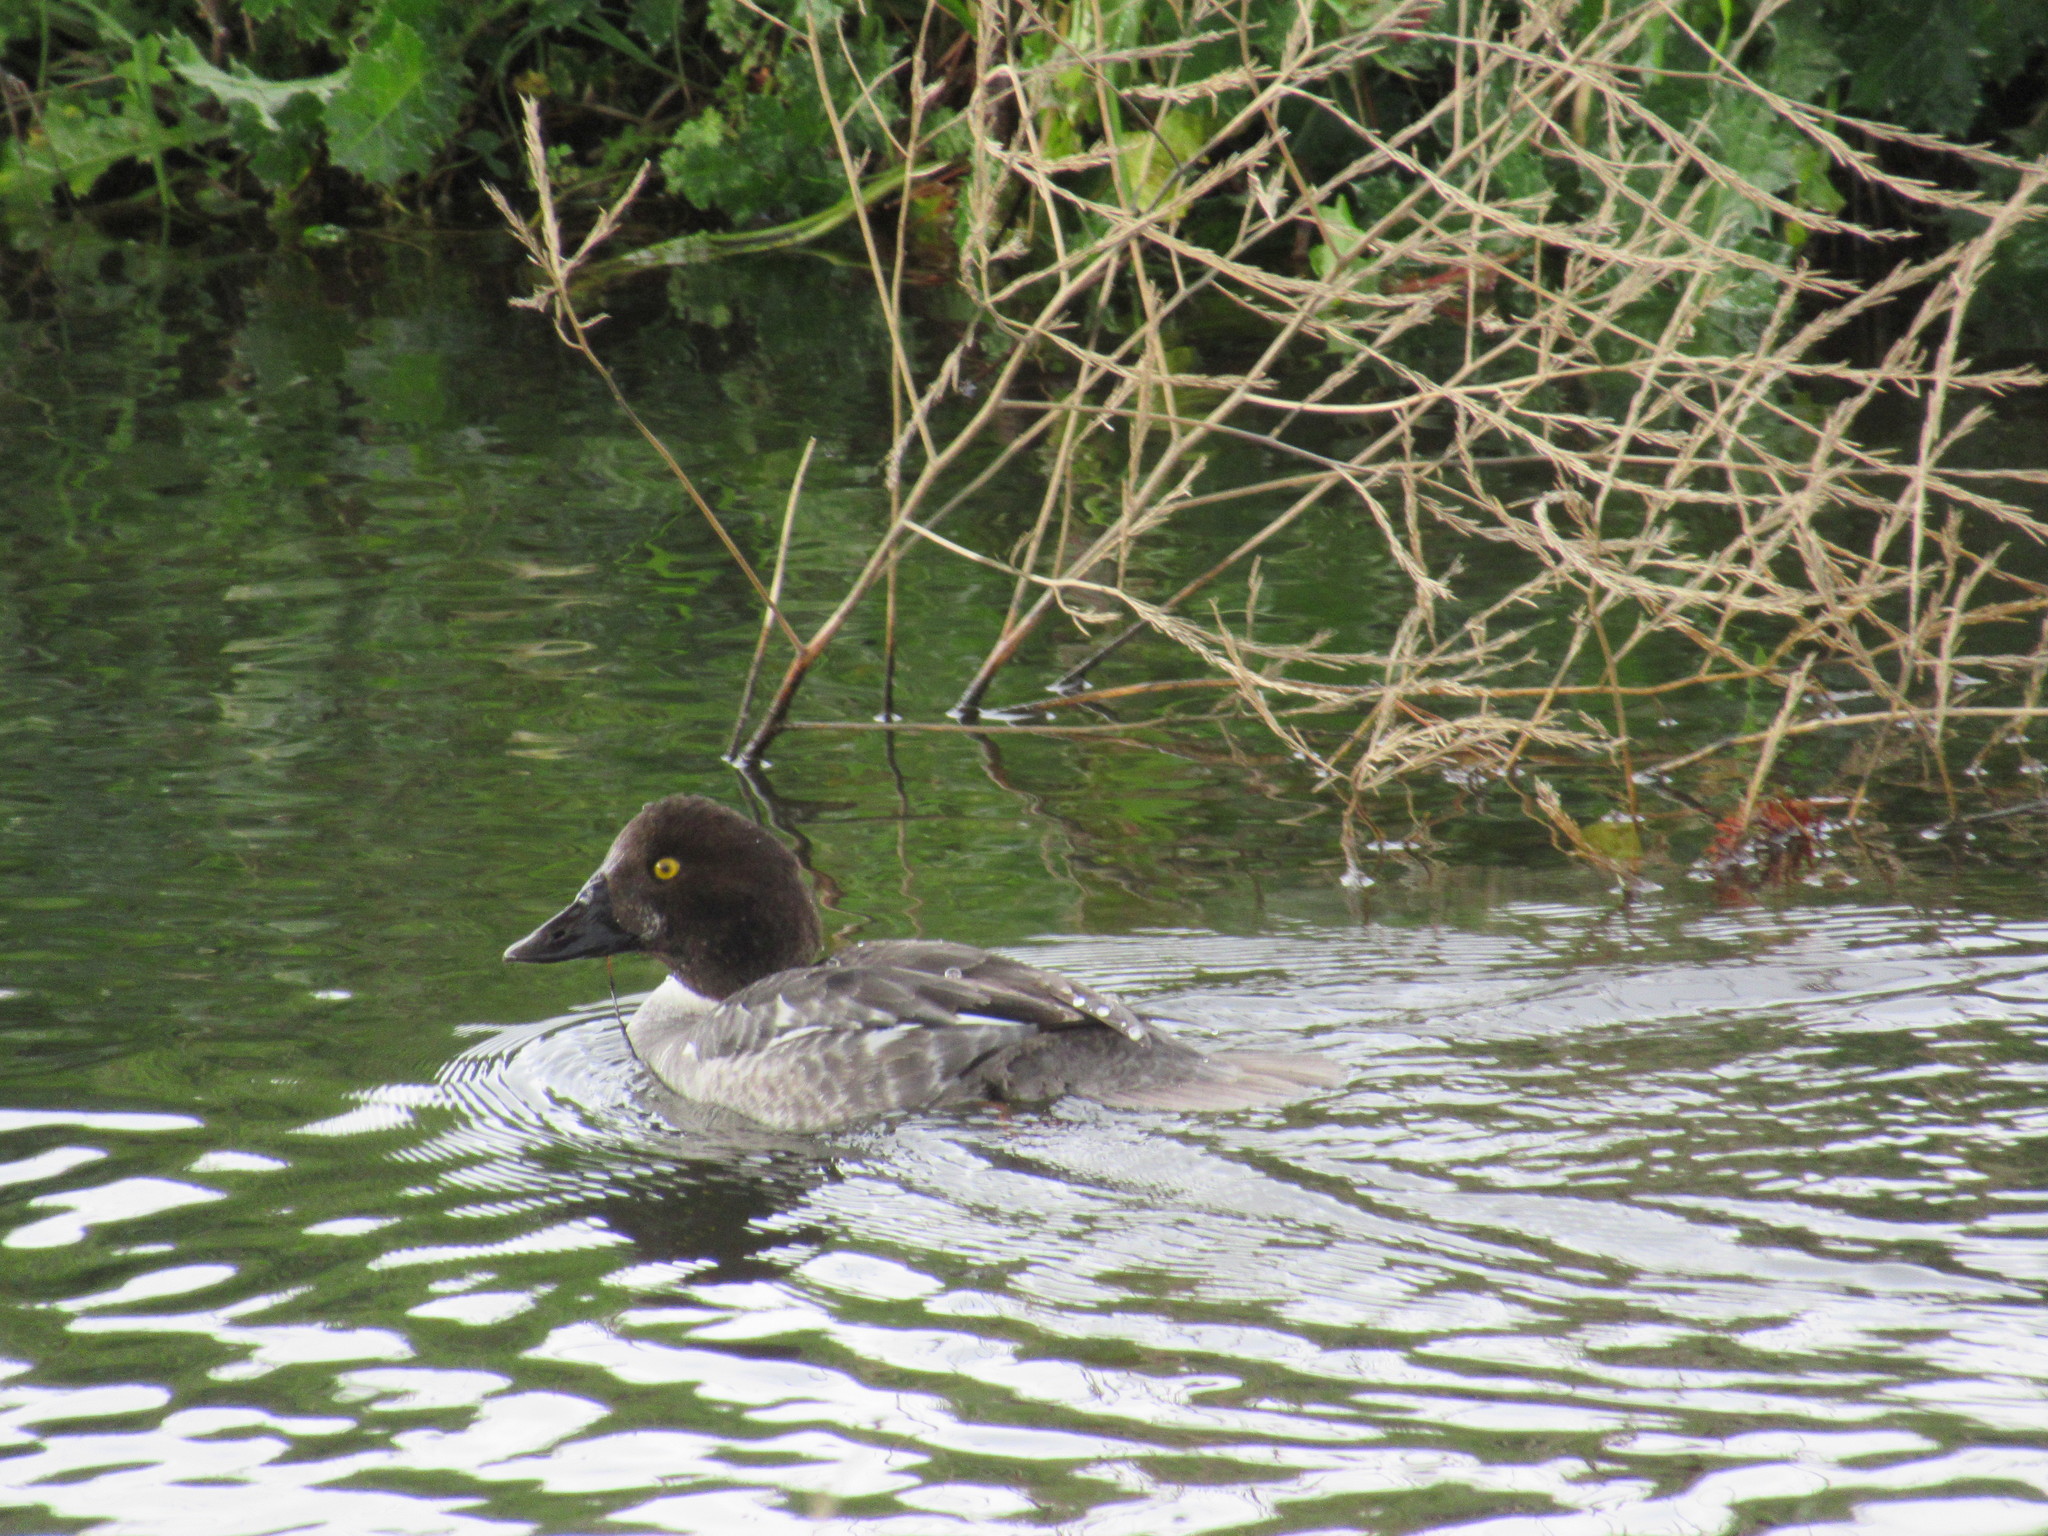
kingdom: Animalia
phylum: Chordata
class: Aves
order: Anseriformes
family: Anatidae
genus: Bucephala
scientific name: Bucephala clangula
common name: Common goldeneye
